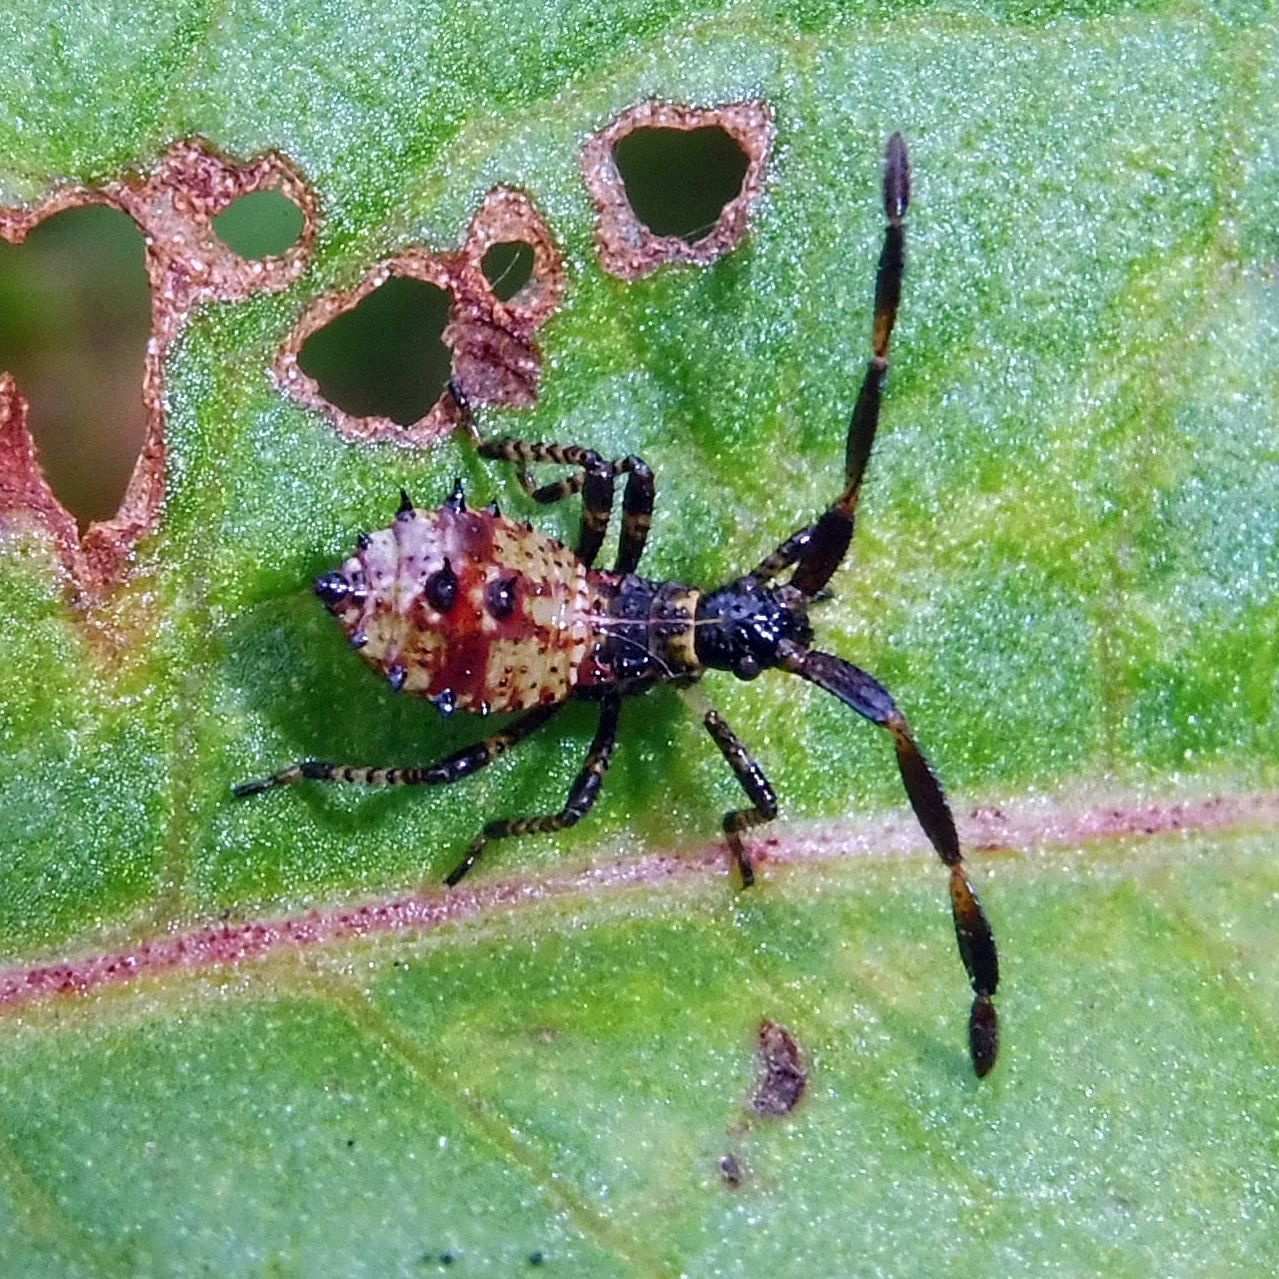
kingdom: Animalia
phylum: Arthropoda
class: Insecta
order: Hemiptera
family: Coreidae
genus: Coreus
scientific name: Coreus marginatus
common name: Dock bug
